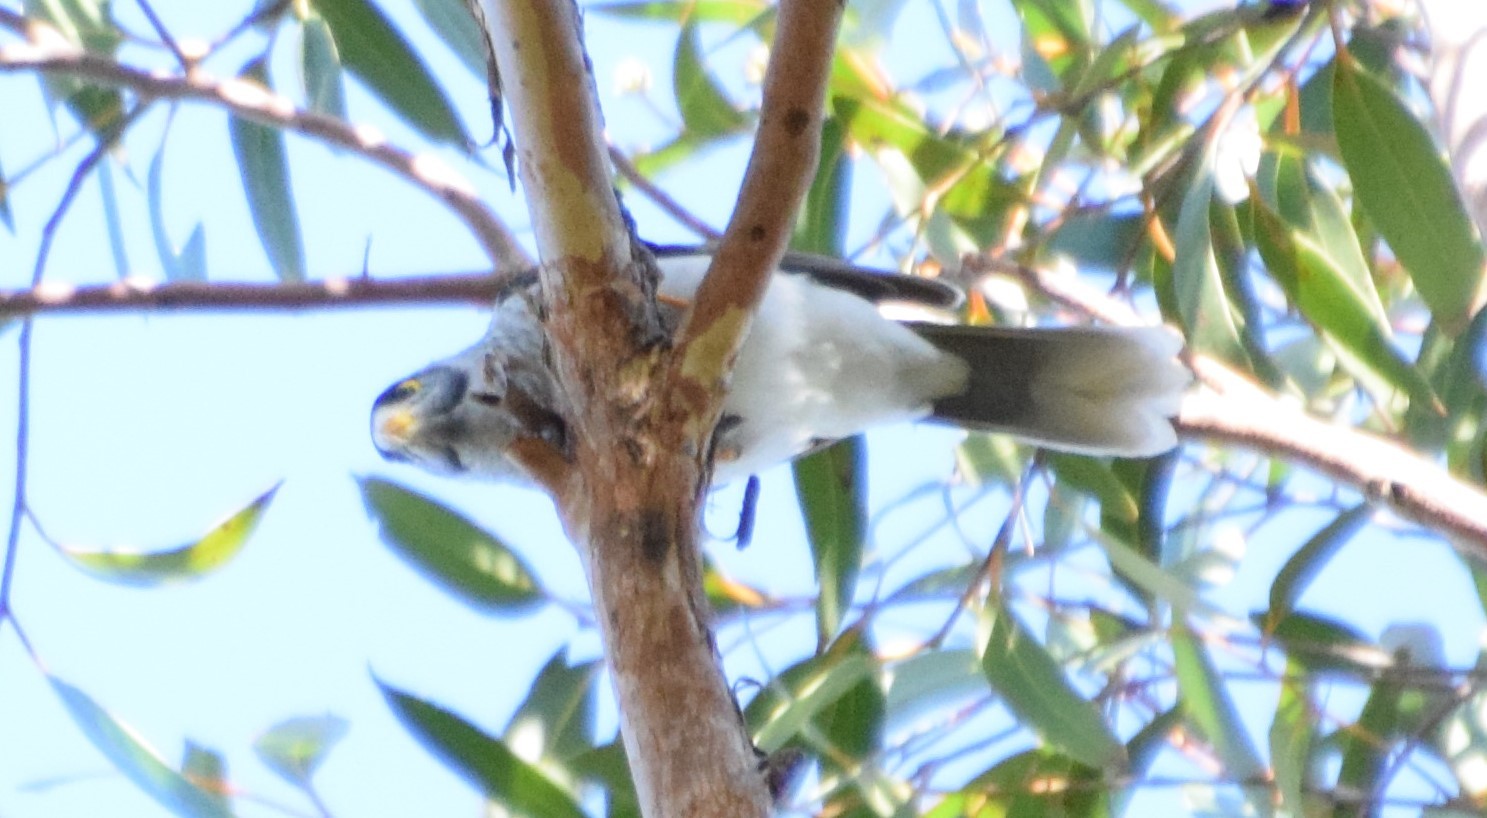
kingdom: Animalia
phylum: Chordata
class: Aves
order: Passeriformes
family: Meliphagidae
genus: Manorina
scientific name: Manorina melanocephala
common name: Noisy miner
